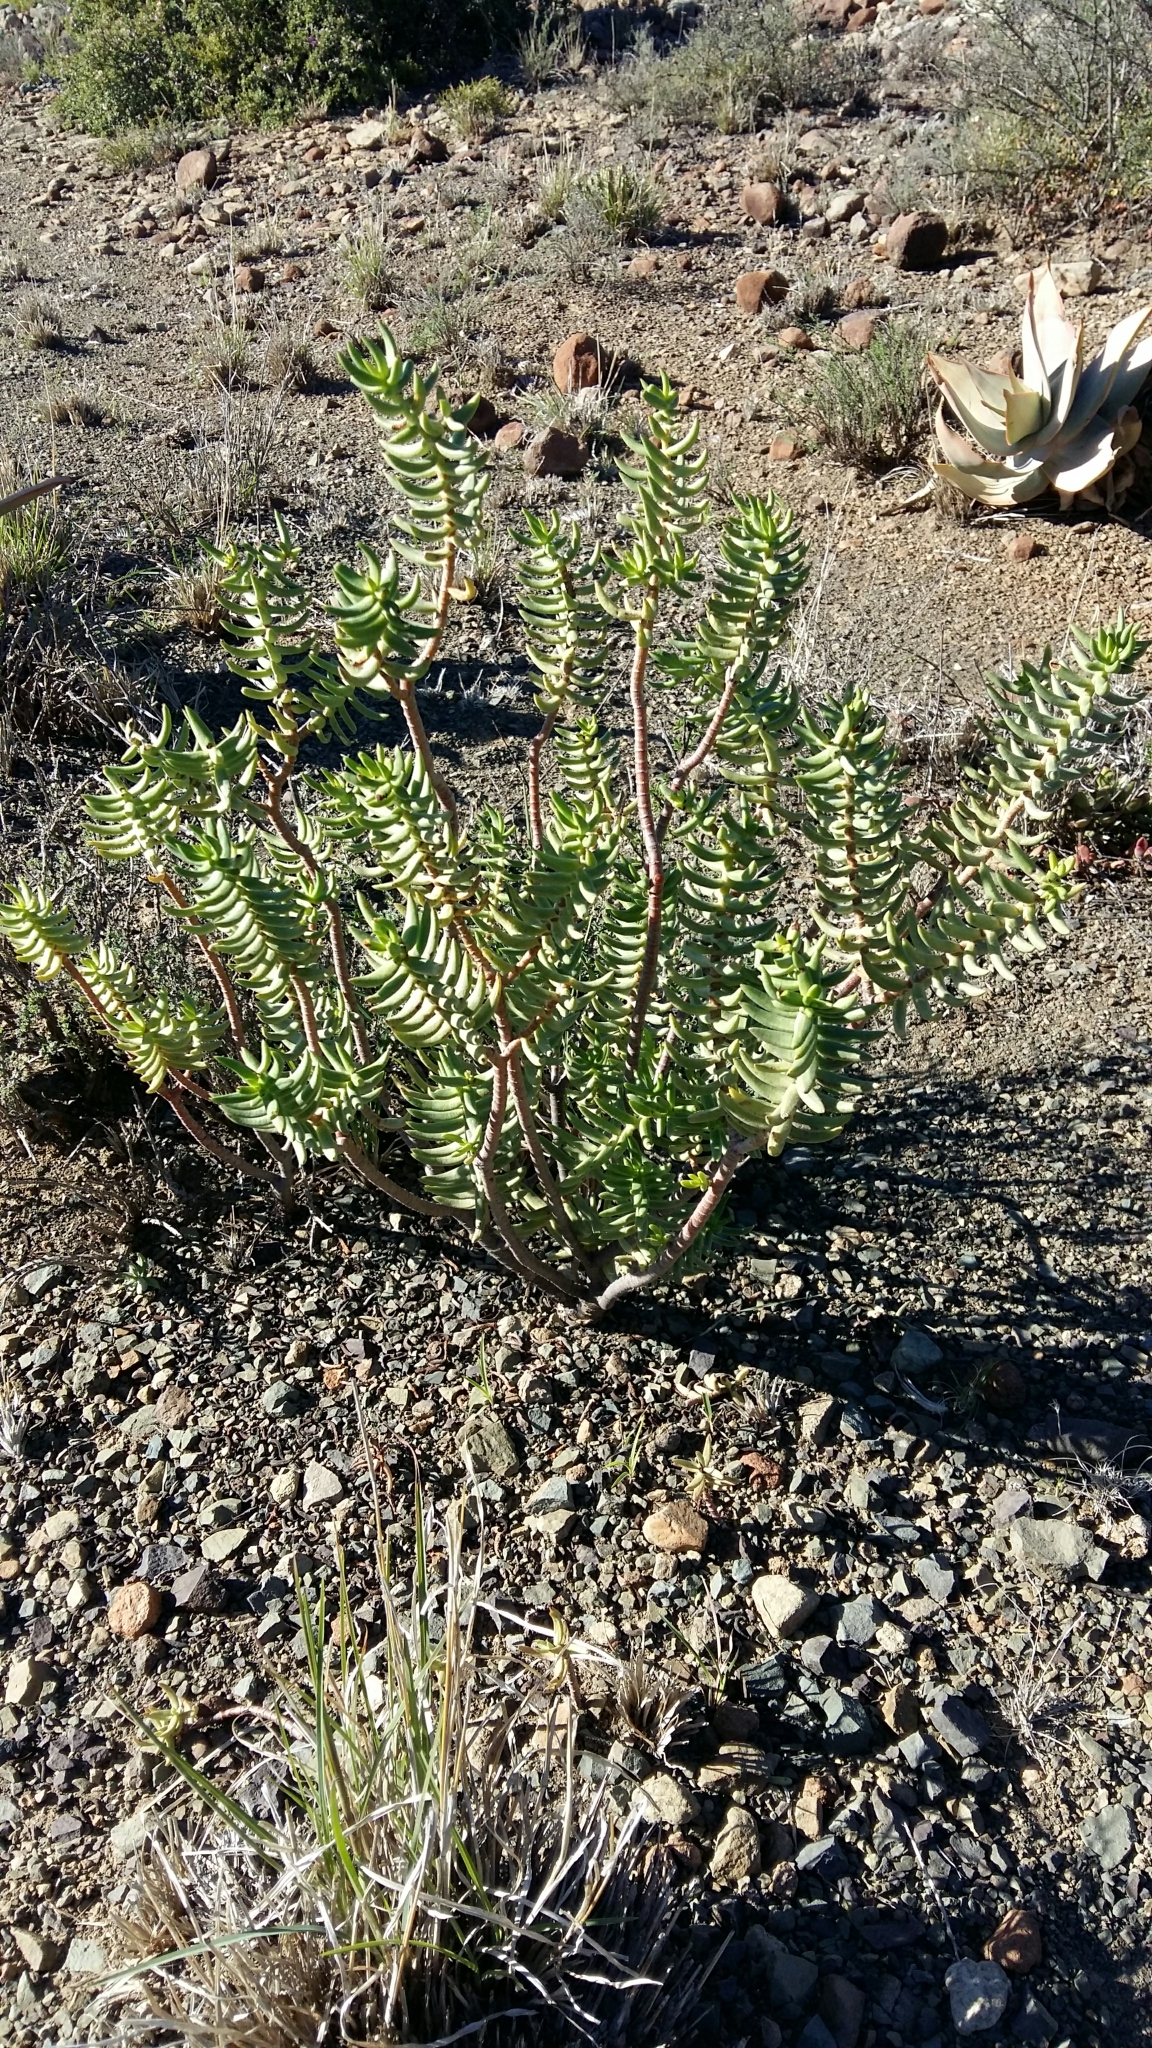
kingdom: Plantae
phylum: Tracheophyta
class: Magnoliopsida
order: Saxifragales
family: Crassulaceae
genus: Crassula
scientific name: Crassula tetragona
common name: Pygmyweed
